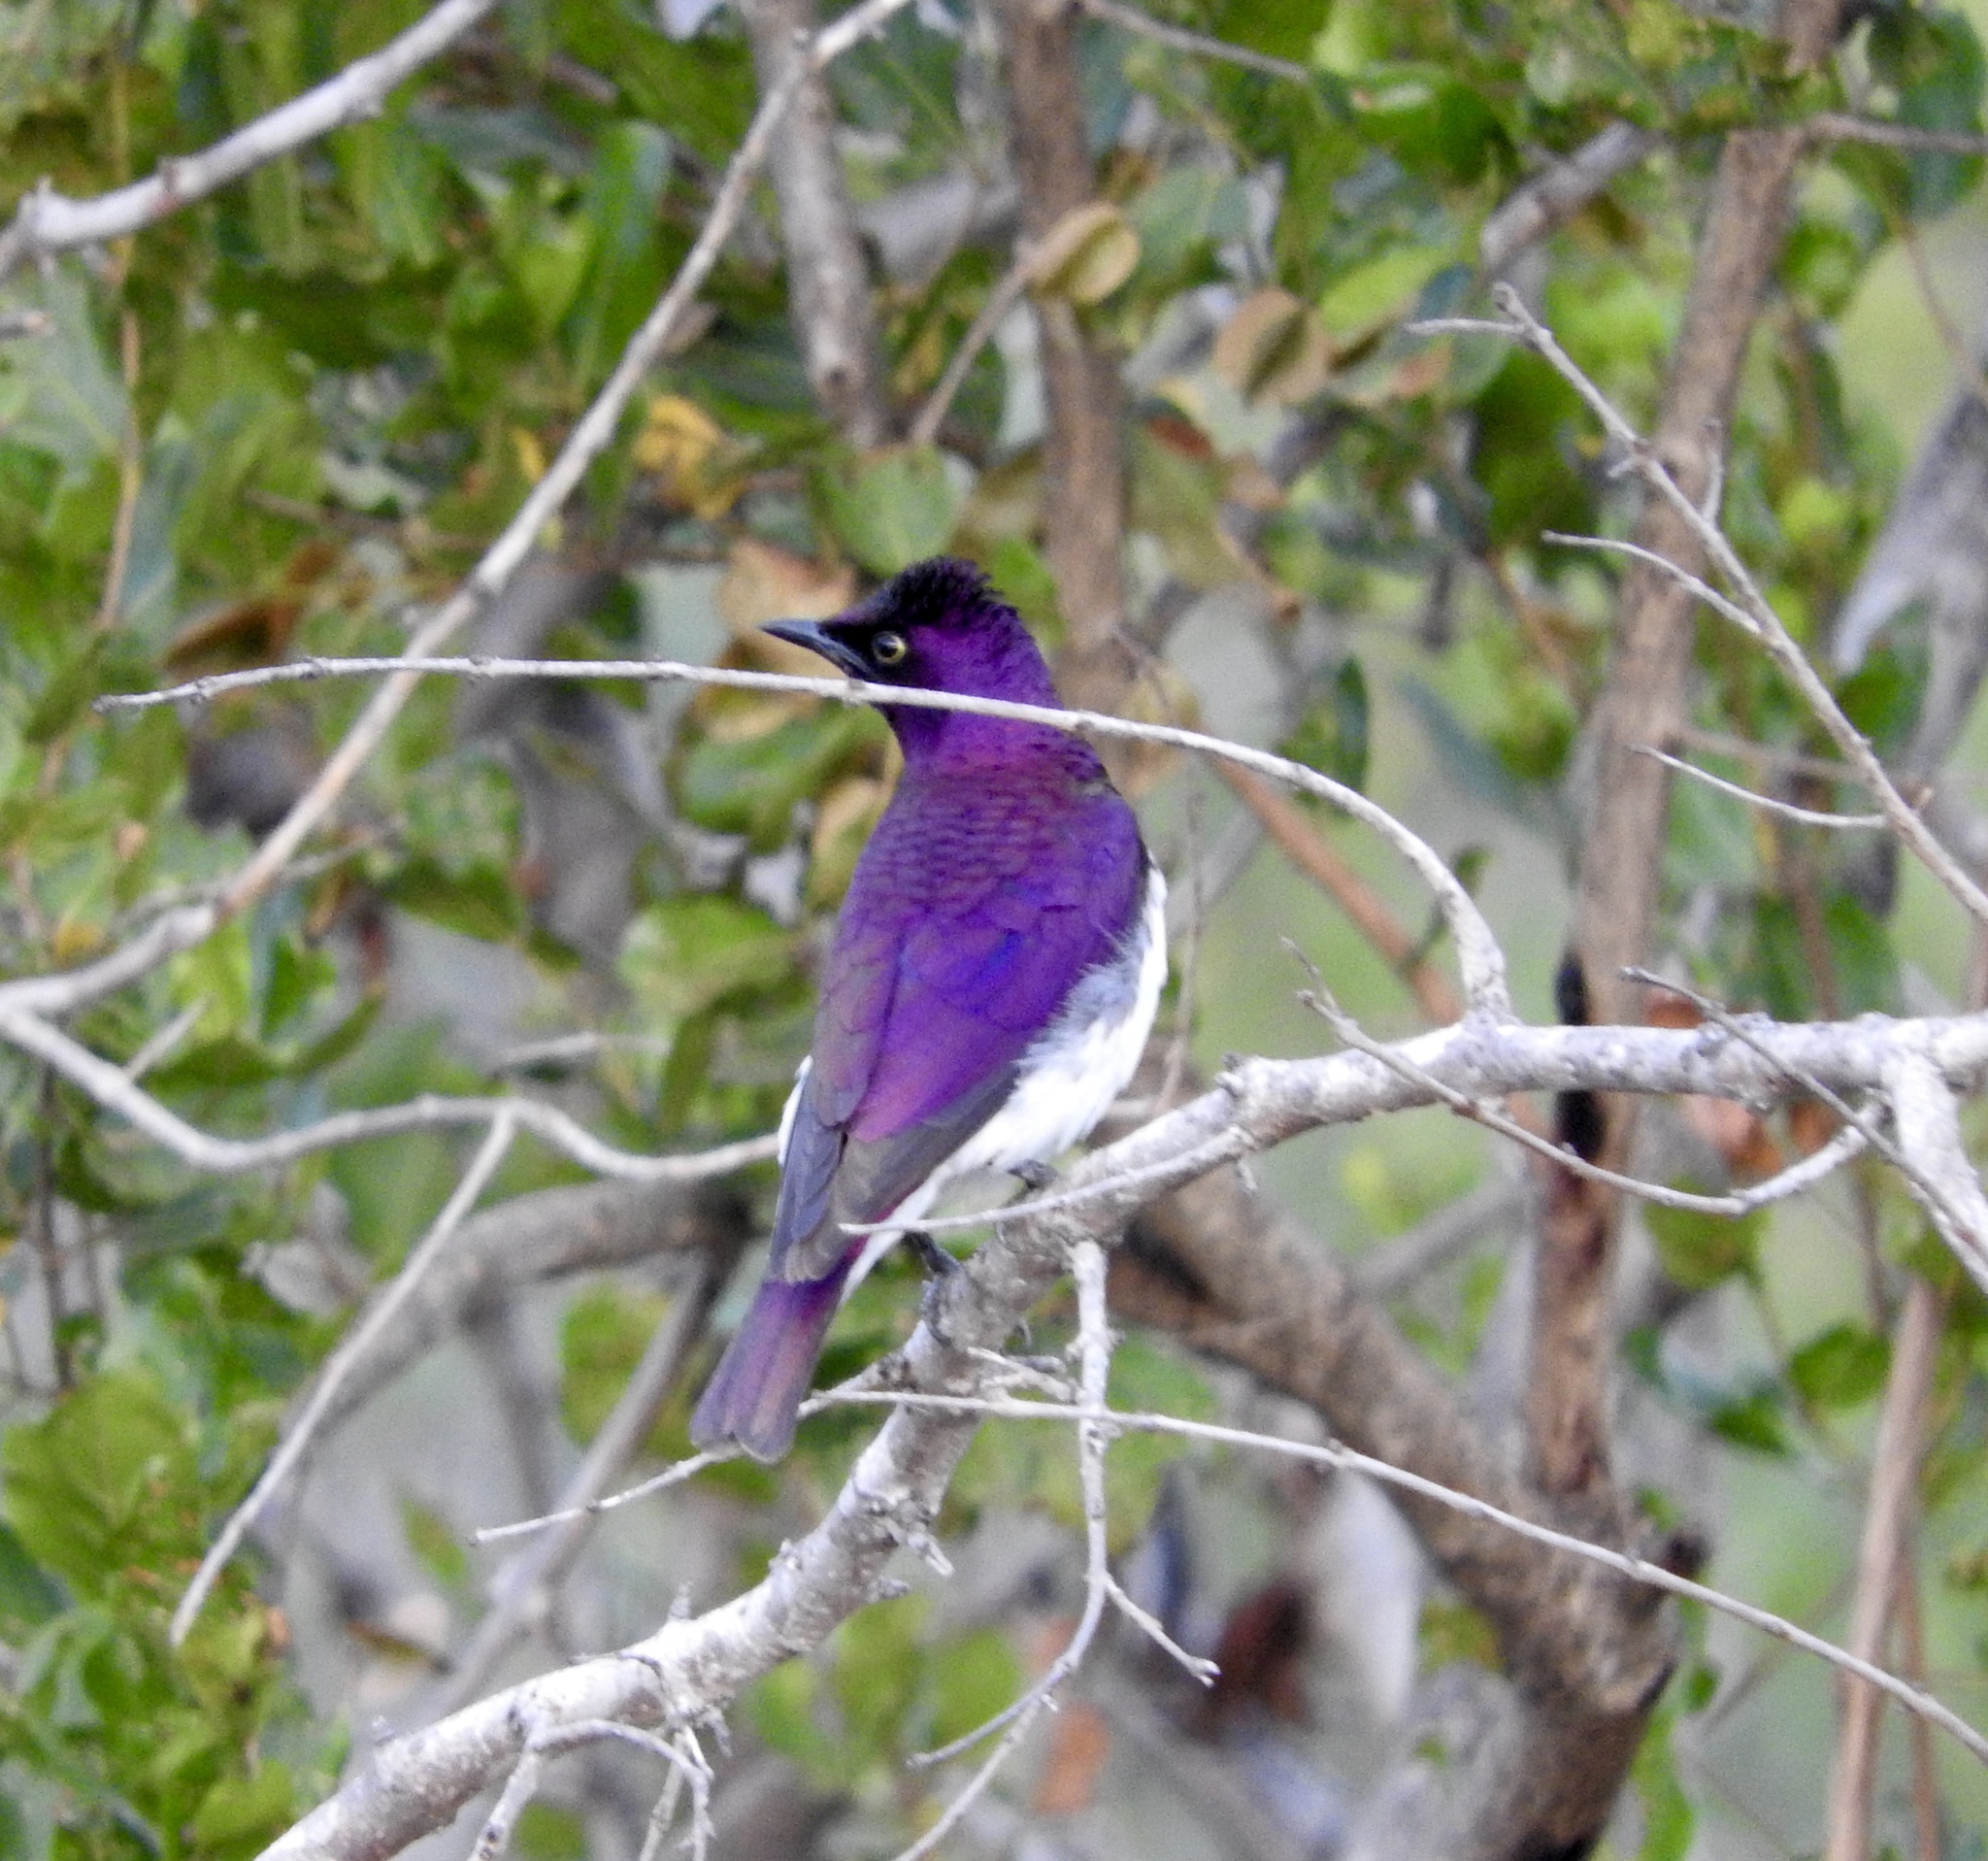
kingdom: Animalia
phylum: Chordata
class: Aves
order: Passeriformes
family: Sturnidae
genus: Cinnyricinclus
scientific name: Cinnyricinclus leucogaster
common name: Violet-backed starling
